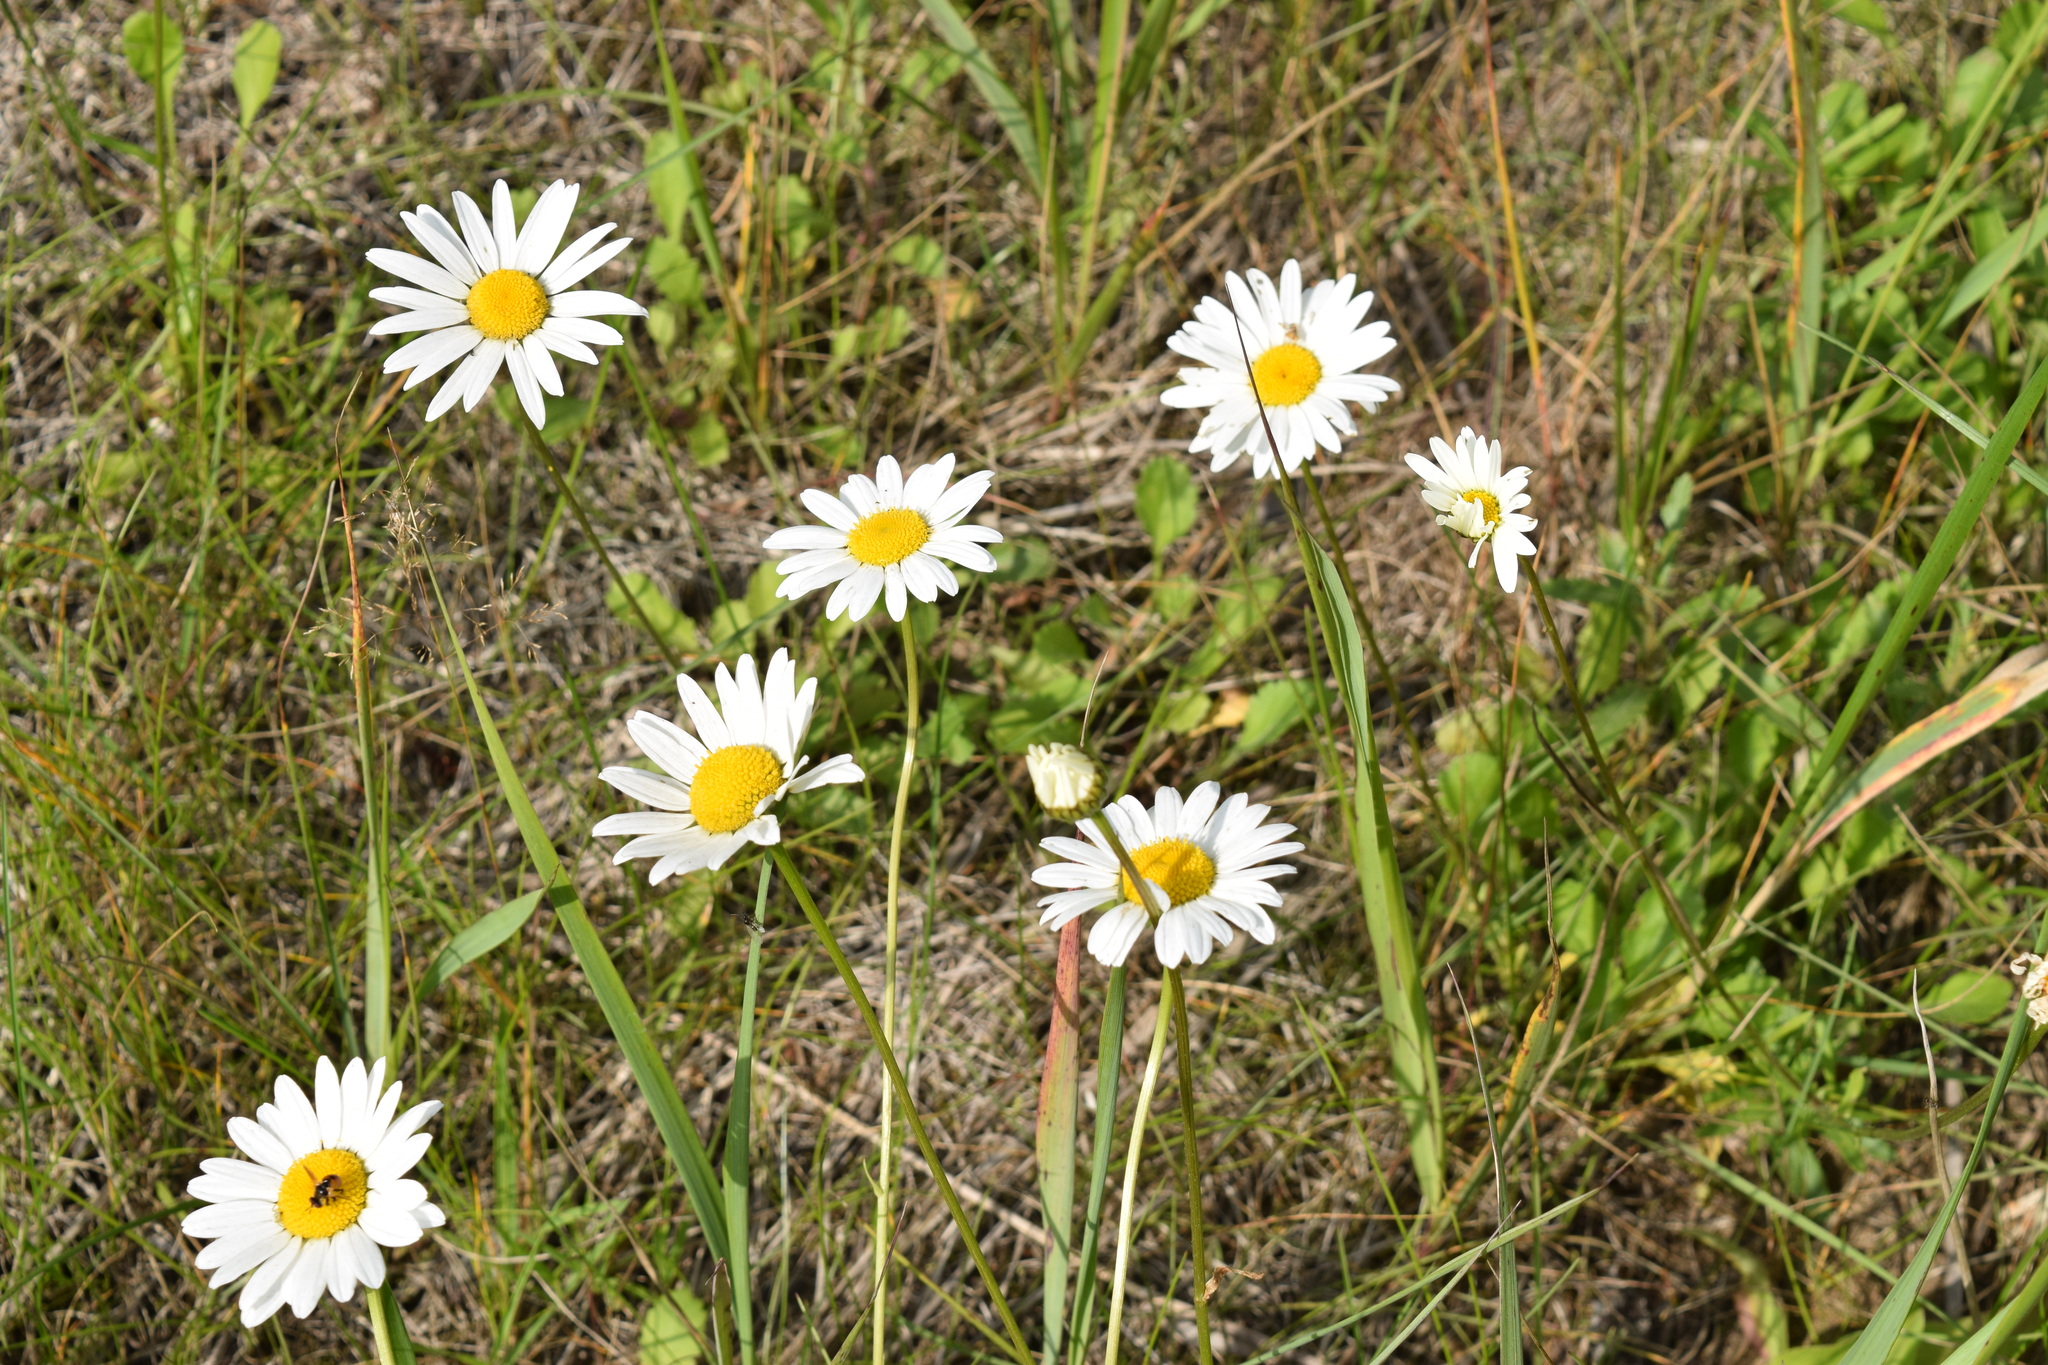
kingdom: Plantae
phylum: Tracheophyta
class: Magnoliopsida
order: Asterales
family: Asteraceae
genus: Leucanthemum
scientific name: Leucanthemum vulgare
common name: Oxeye daisy
